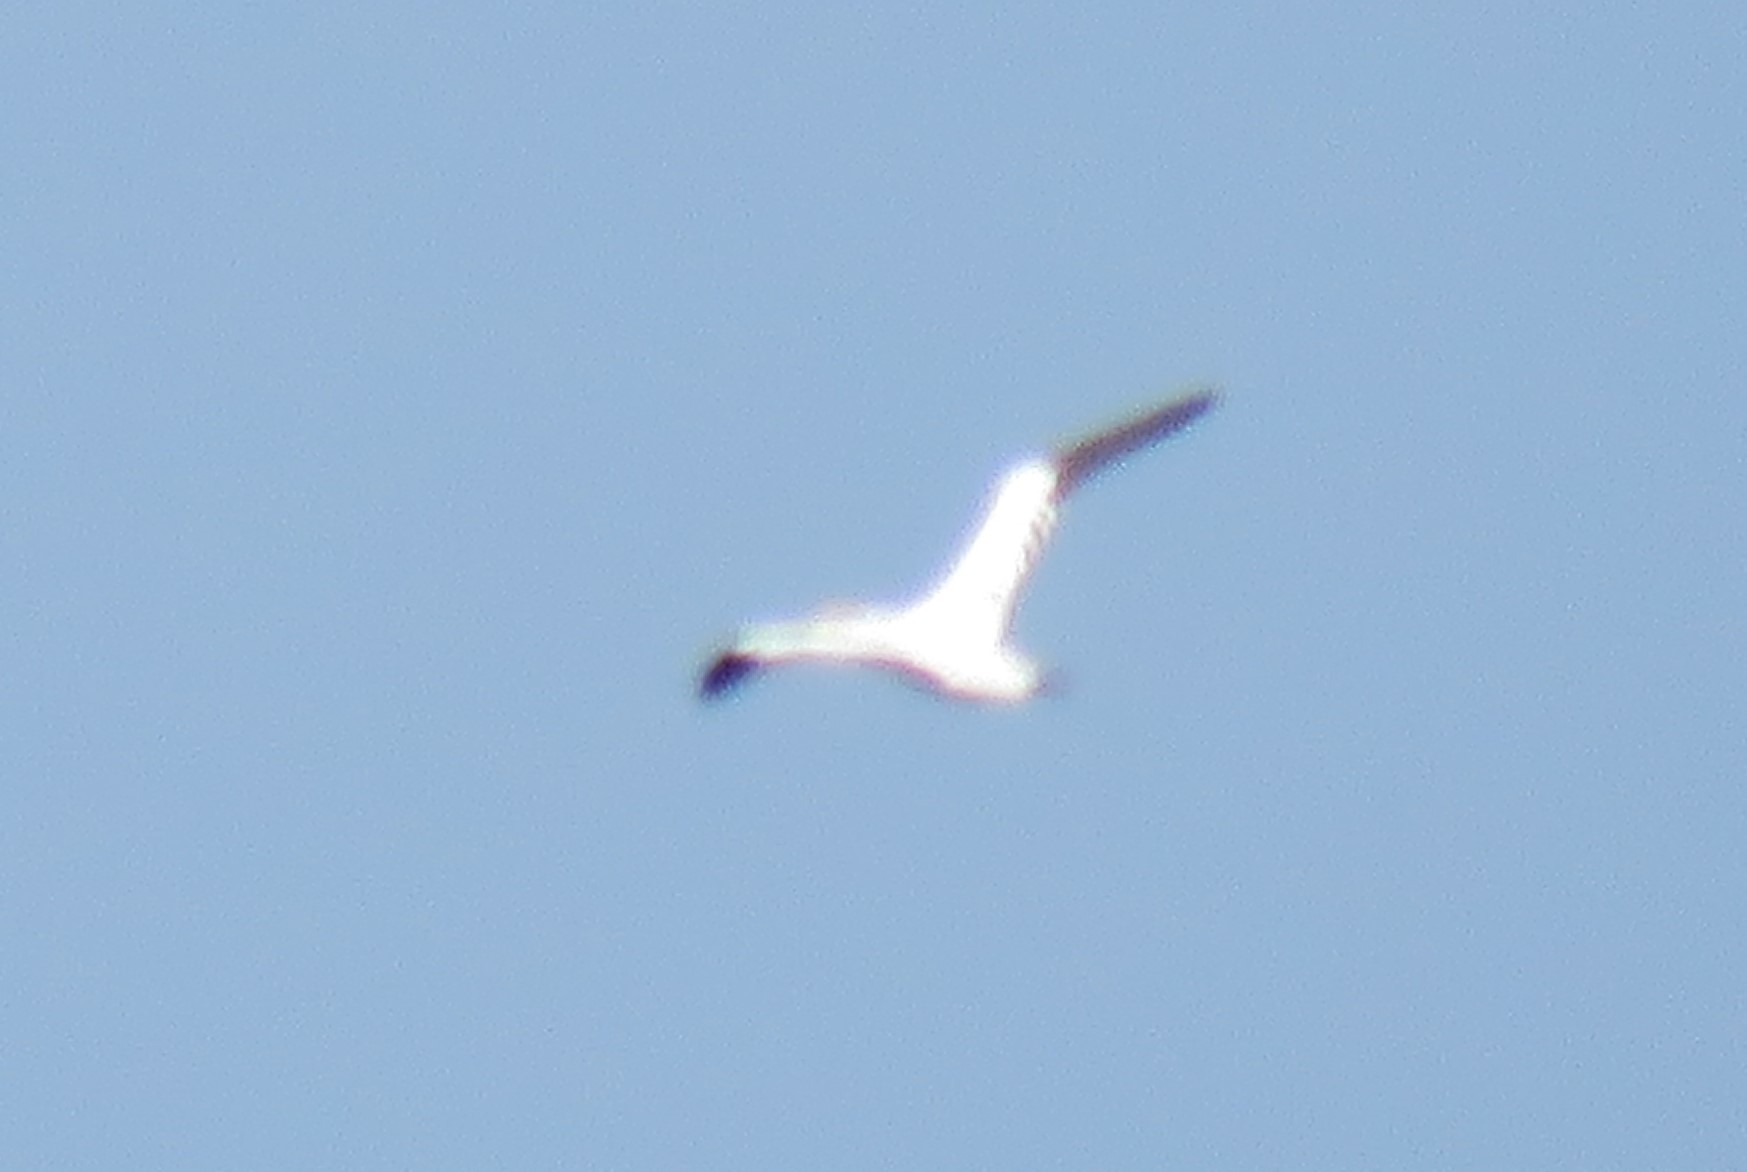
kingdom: Animalia
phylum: Chordata
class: Aves
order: Suliformes
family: Sulidae
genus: Morus
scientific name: Morus bassanus
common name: Northern gannet
